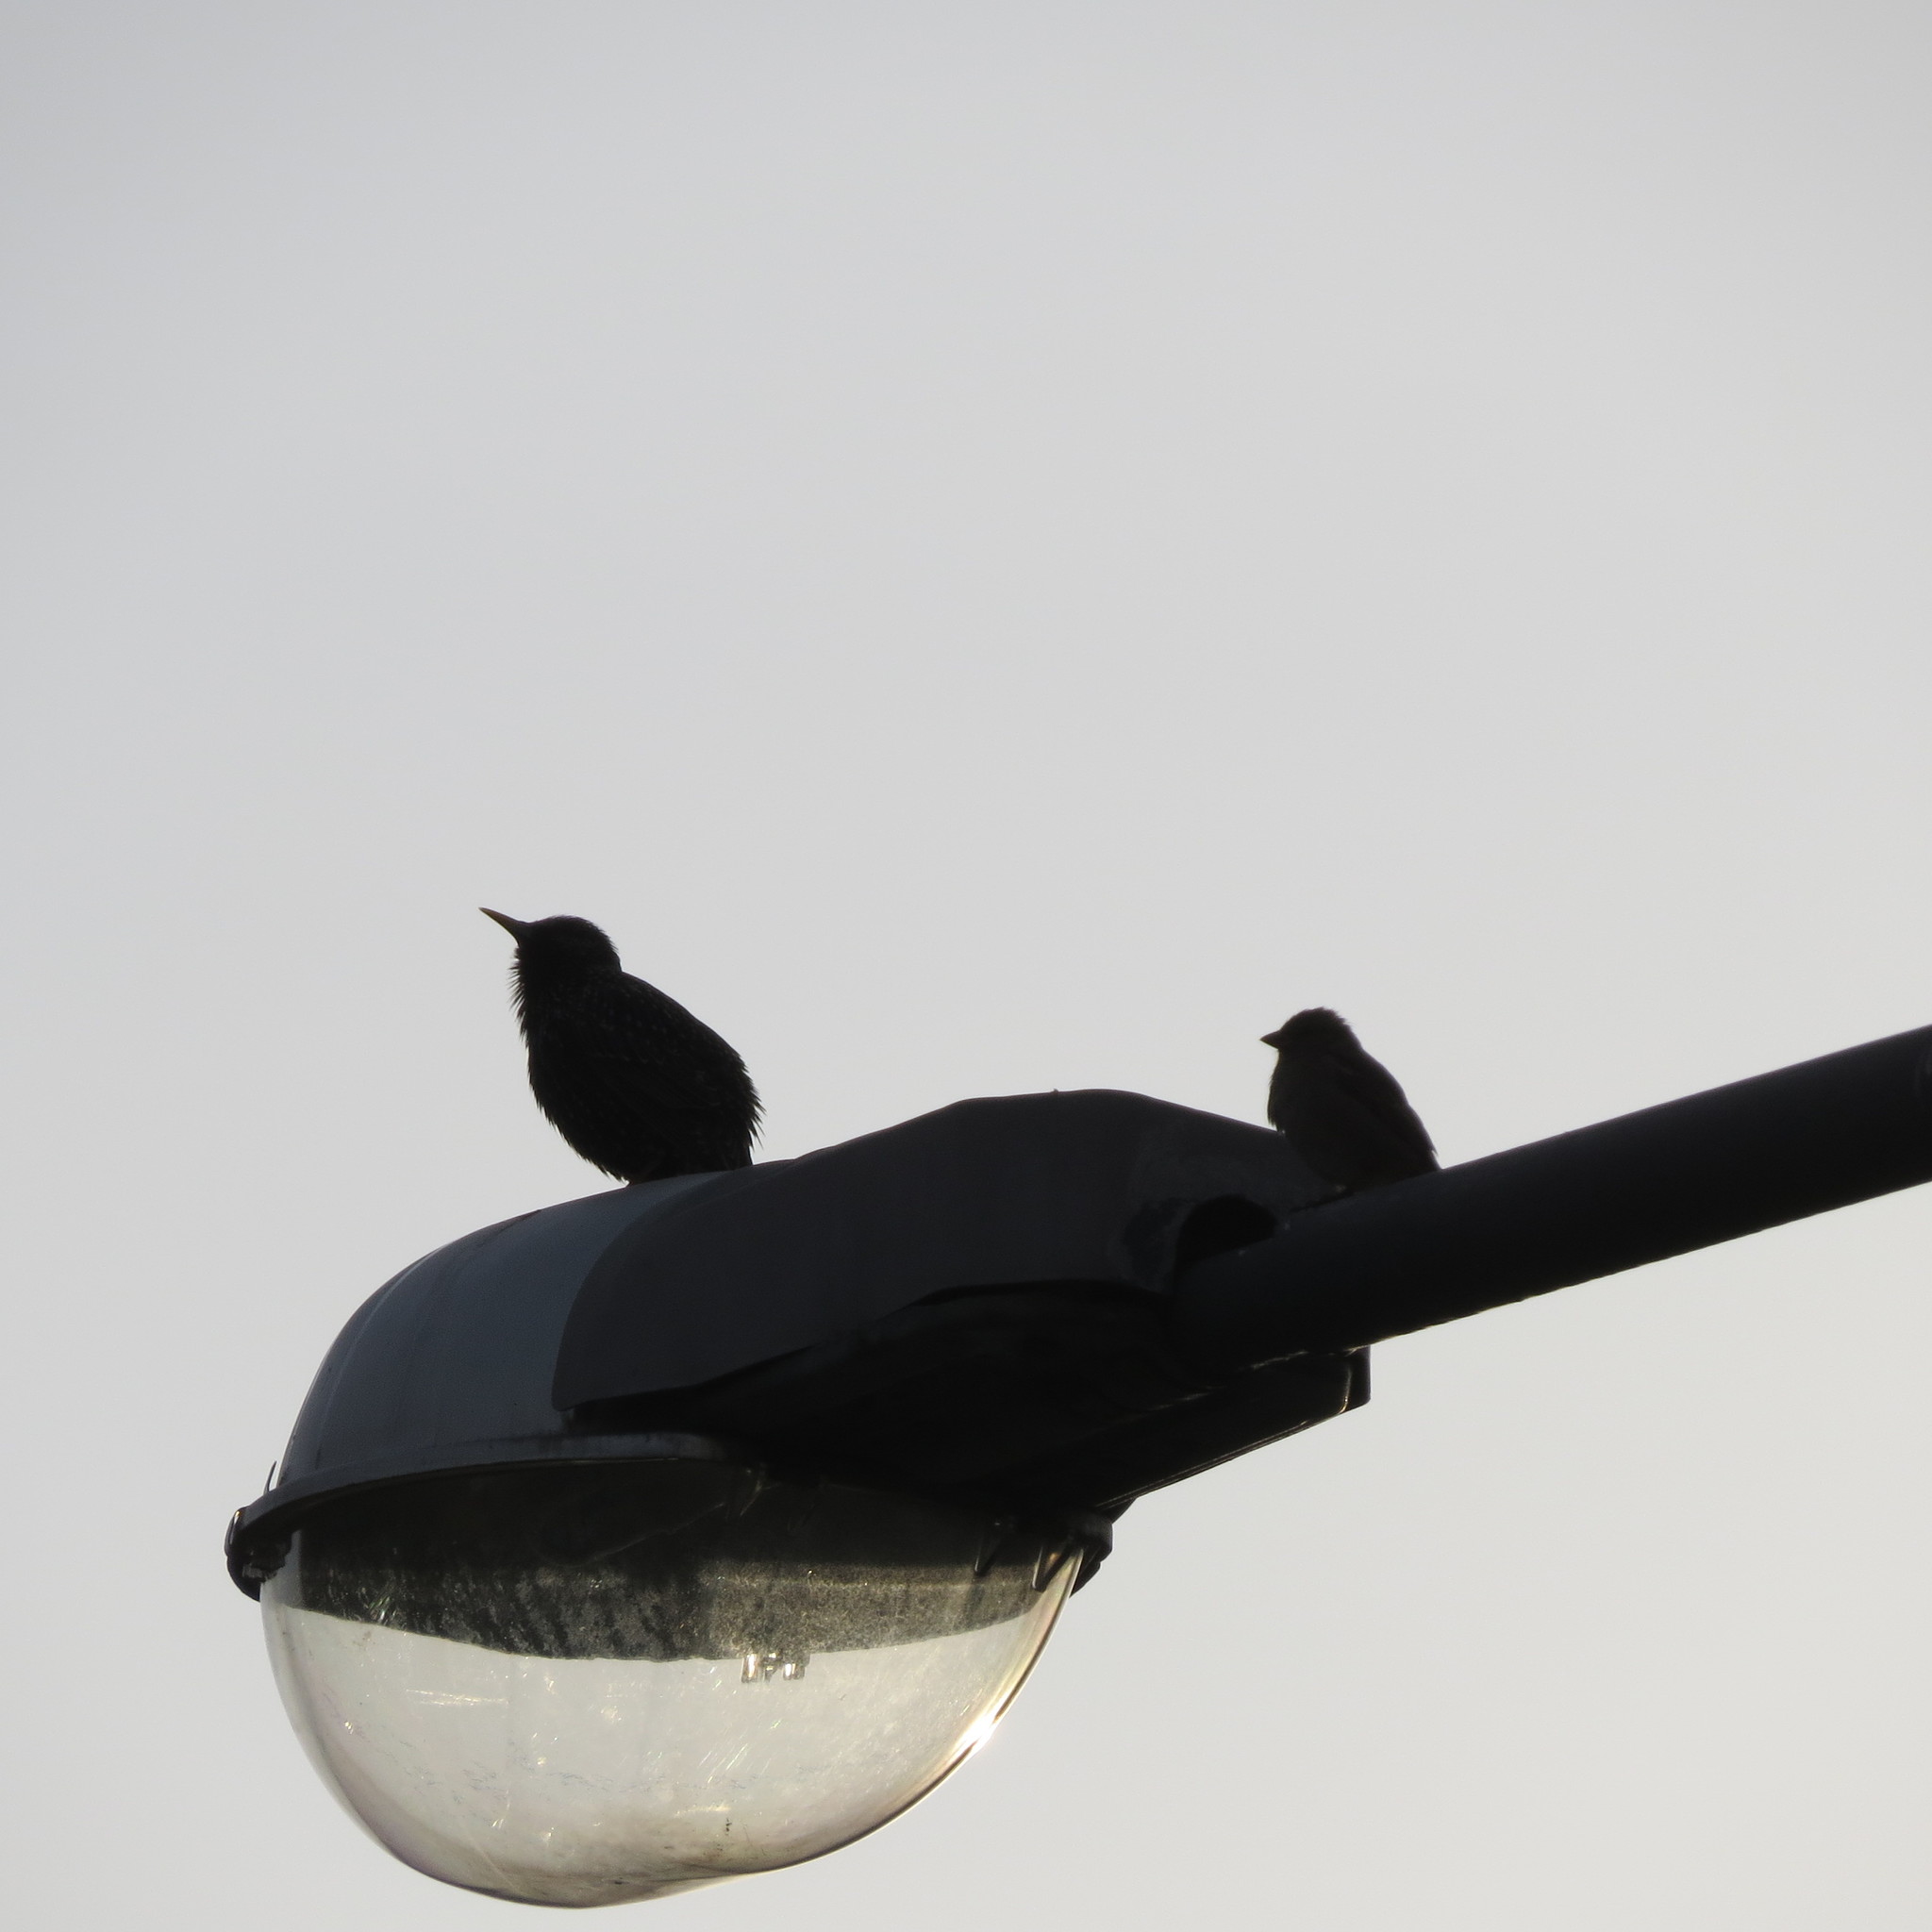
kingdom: Animalia
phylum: Chordata
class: Aves
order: Passeriformes
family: Sturnidae
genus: Sturnus
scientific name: Sturnus vulgaris
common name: Common starling
